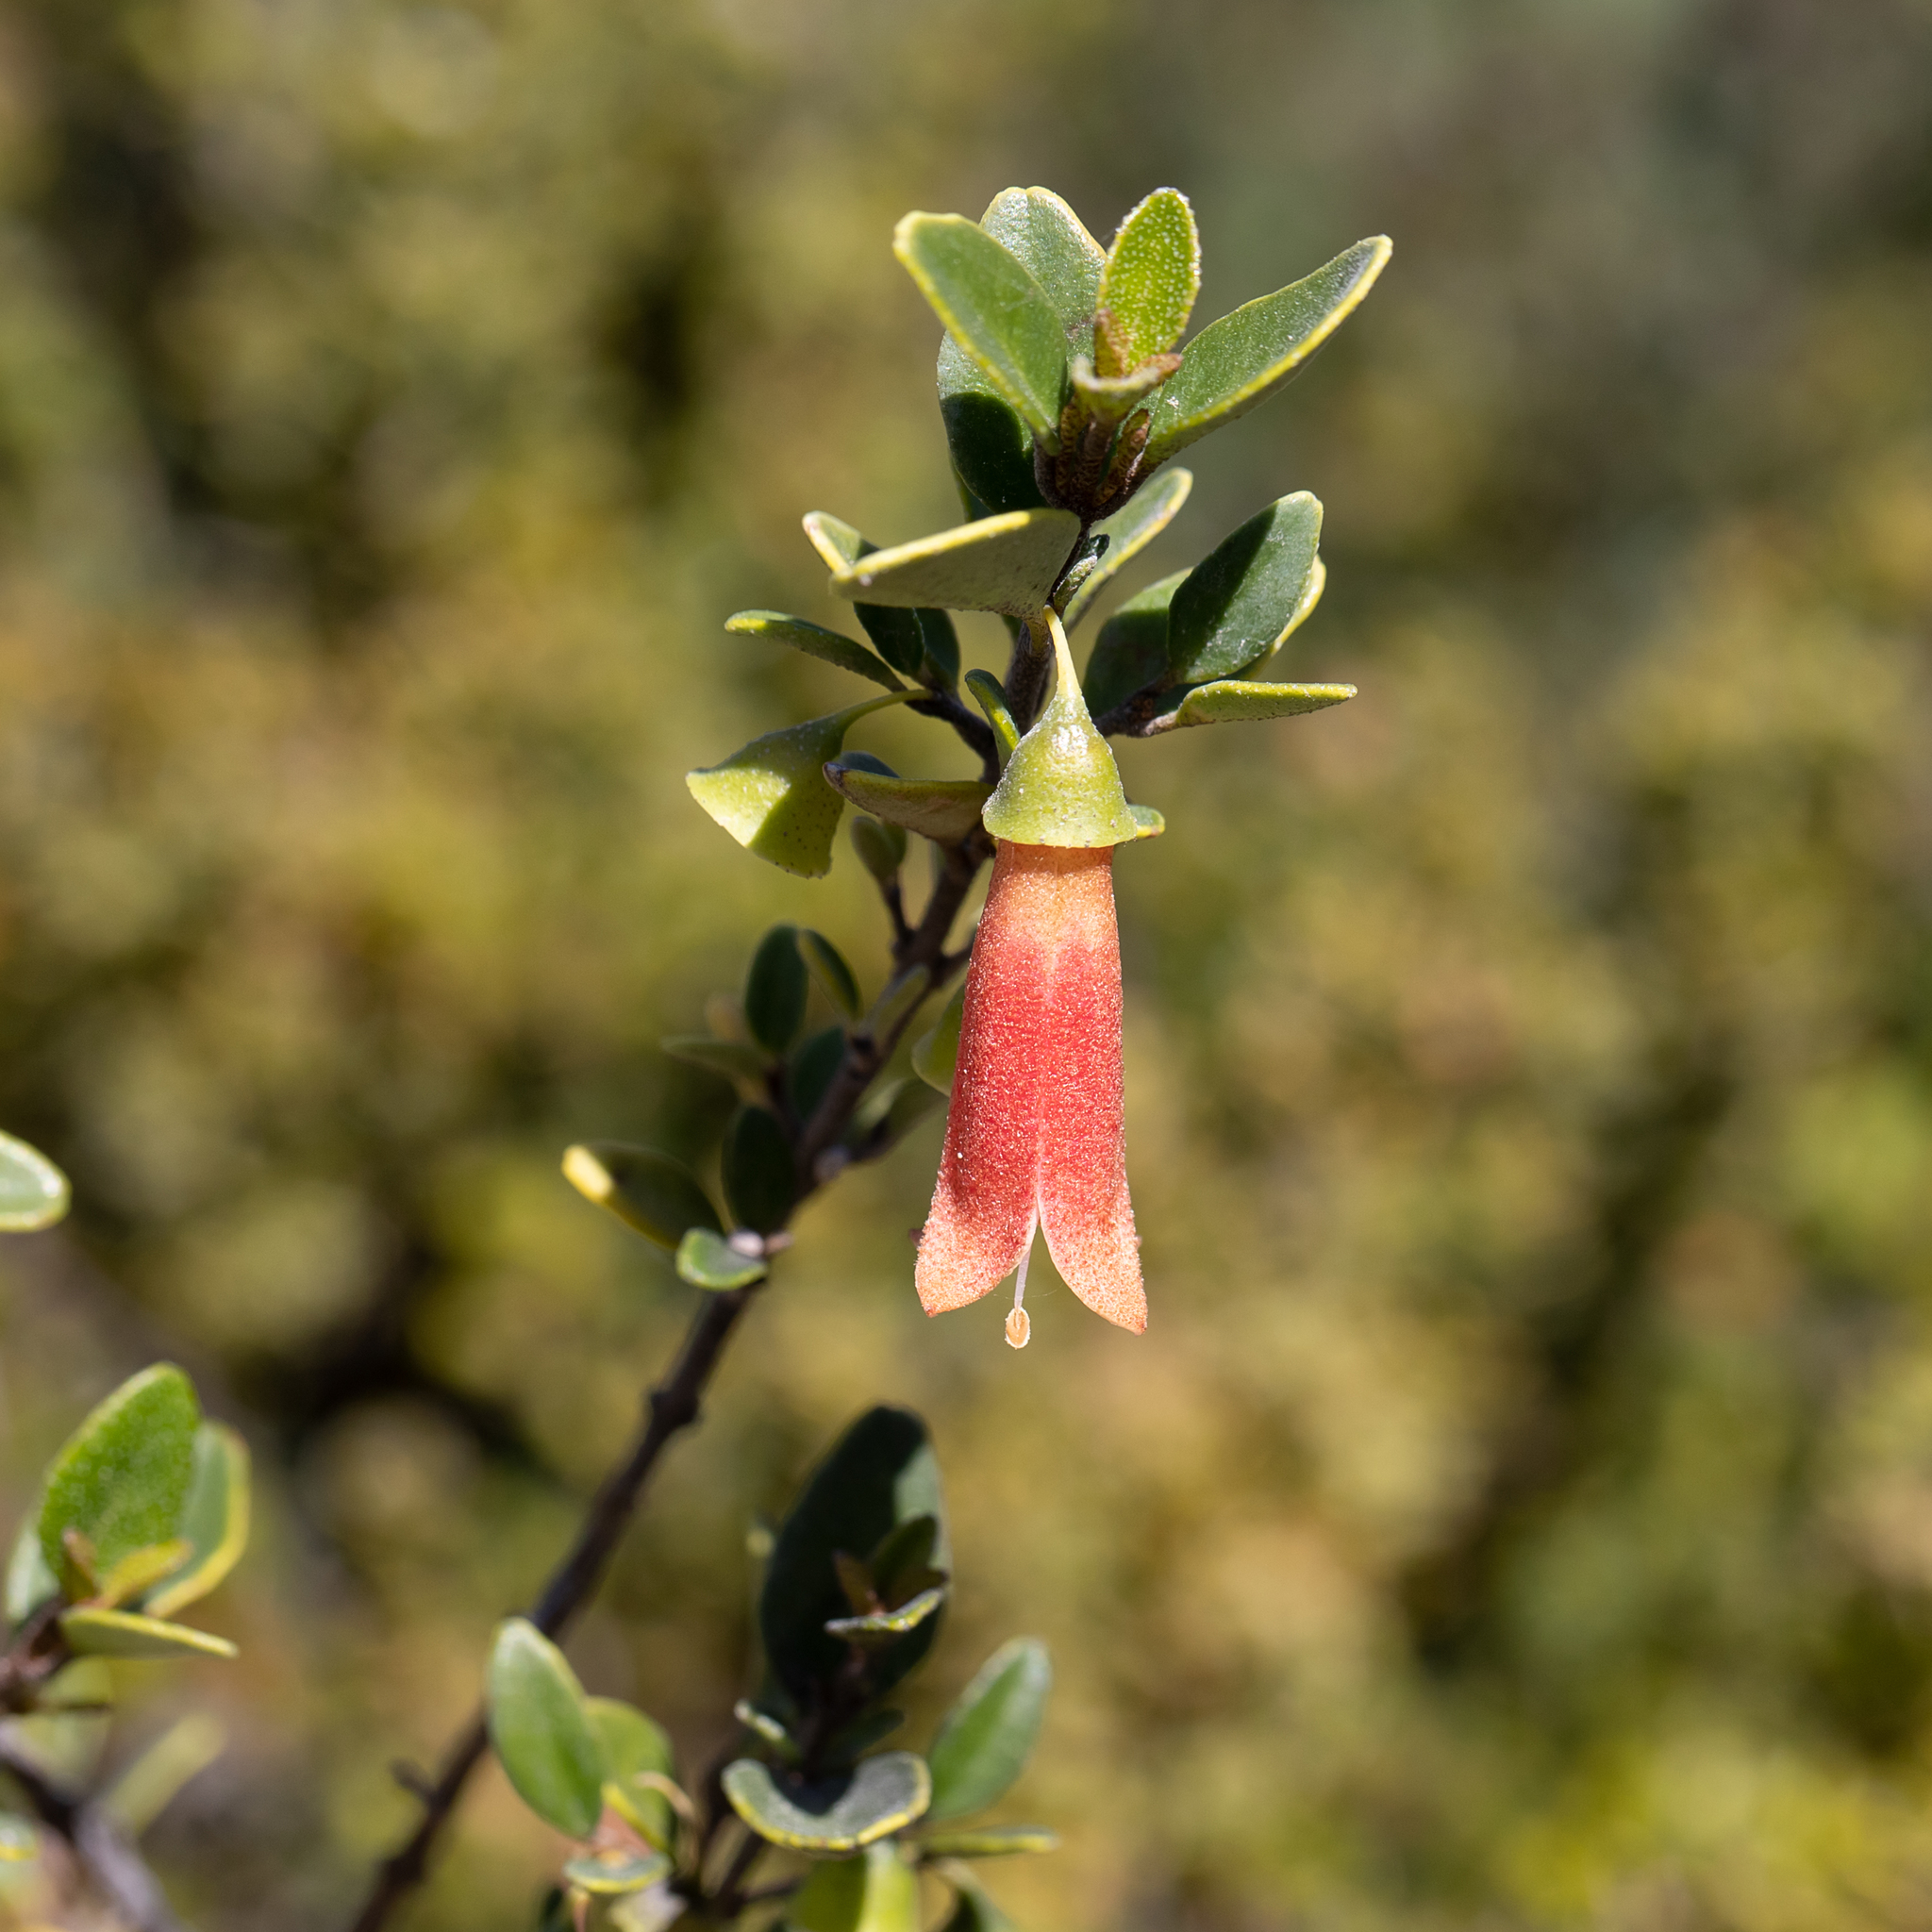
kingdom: Plantae
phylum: Tracheophyta
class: Magnoliopsida
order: Sapindales
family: Rutaceae
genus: Correa
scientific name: Correa pulchella
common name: Salmon correa
